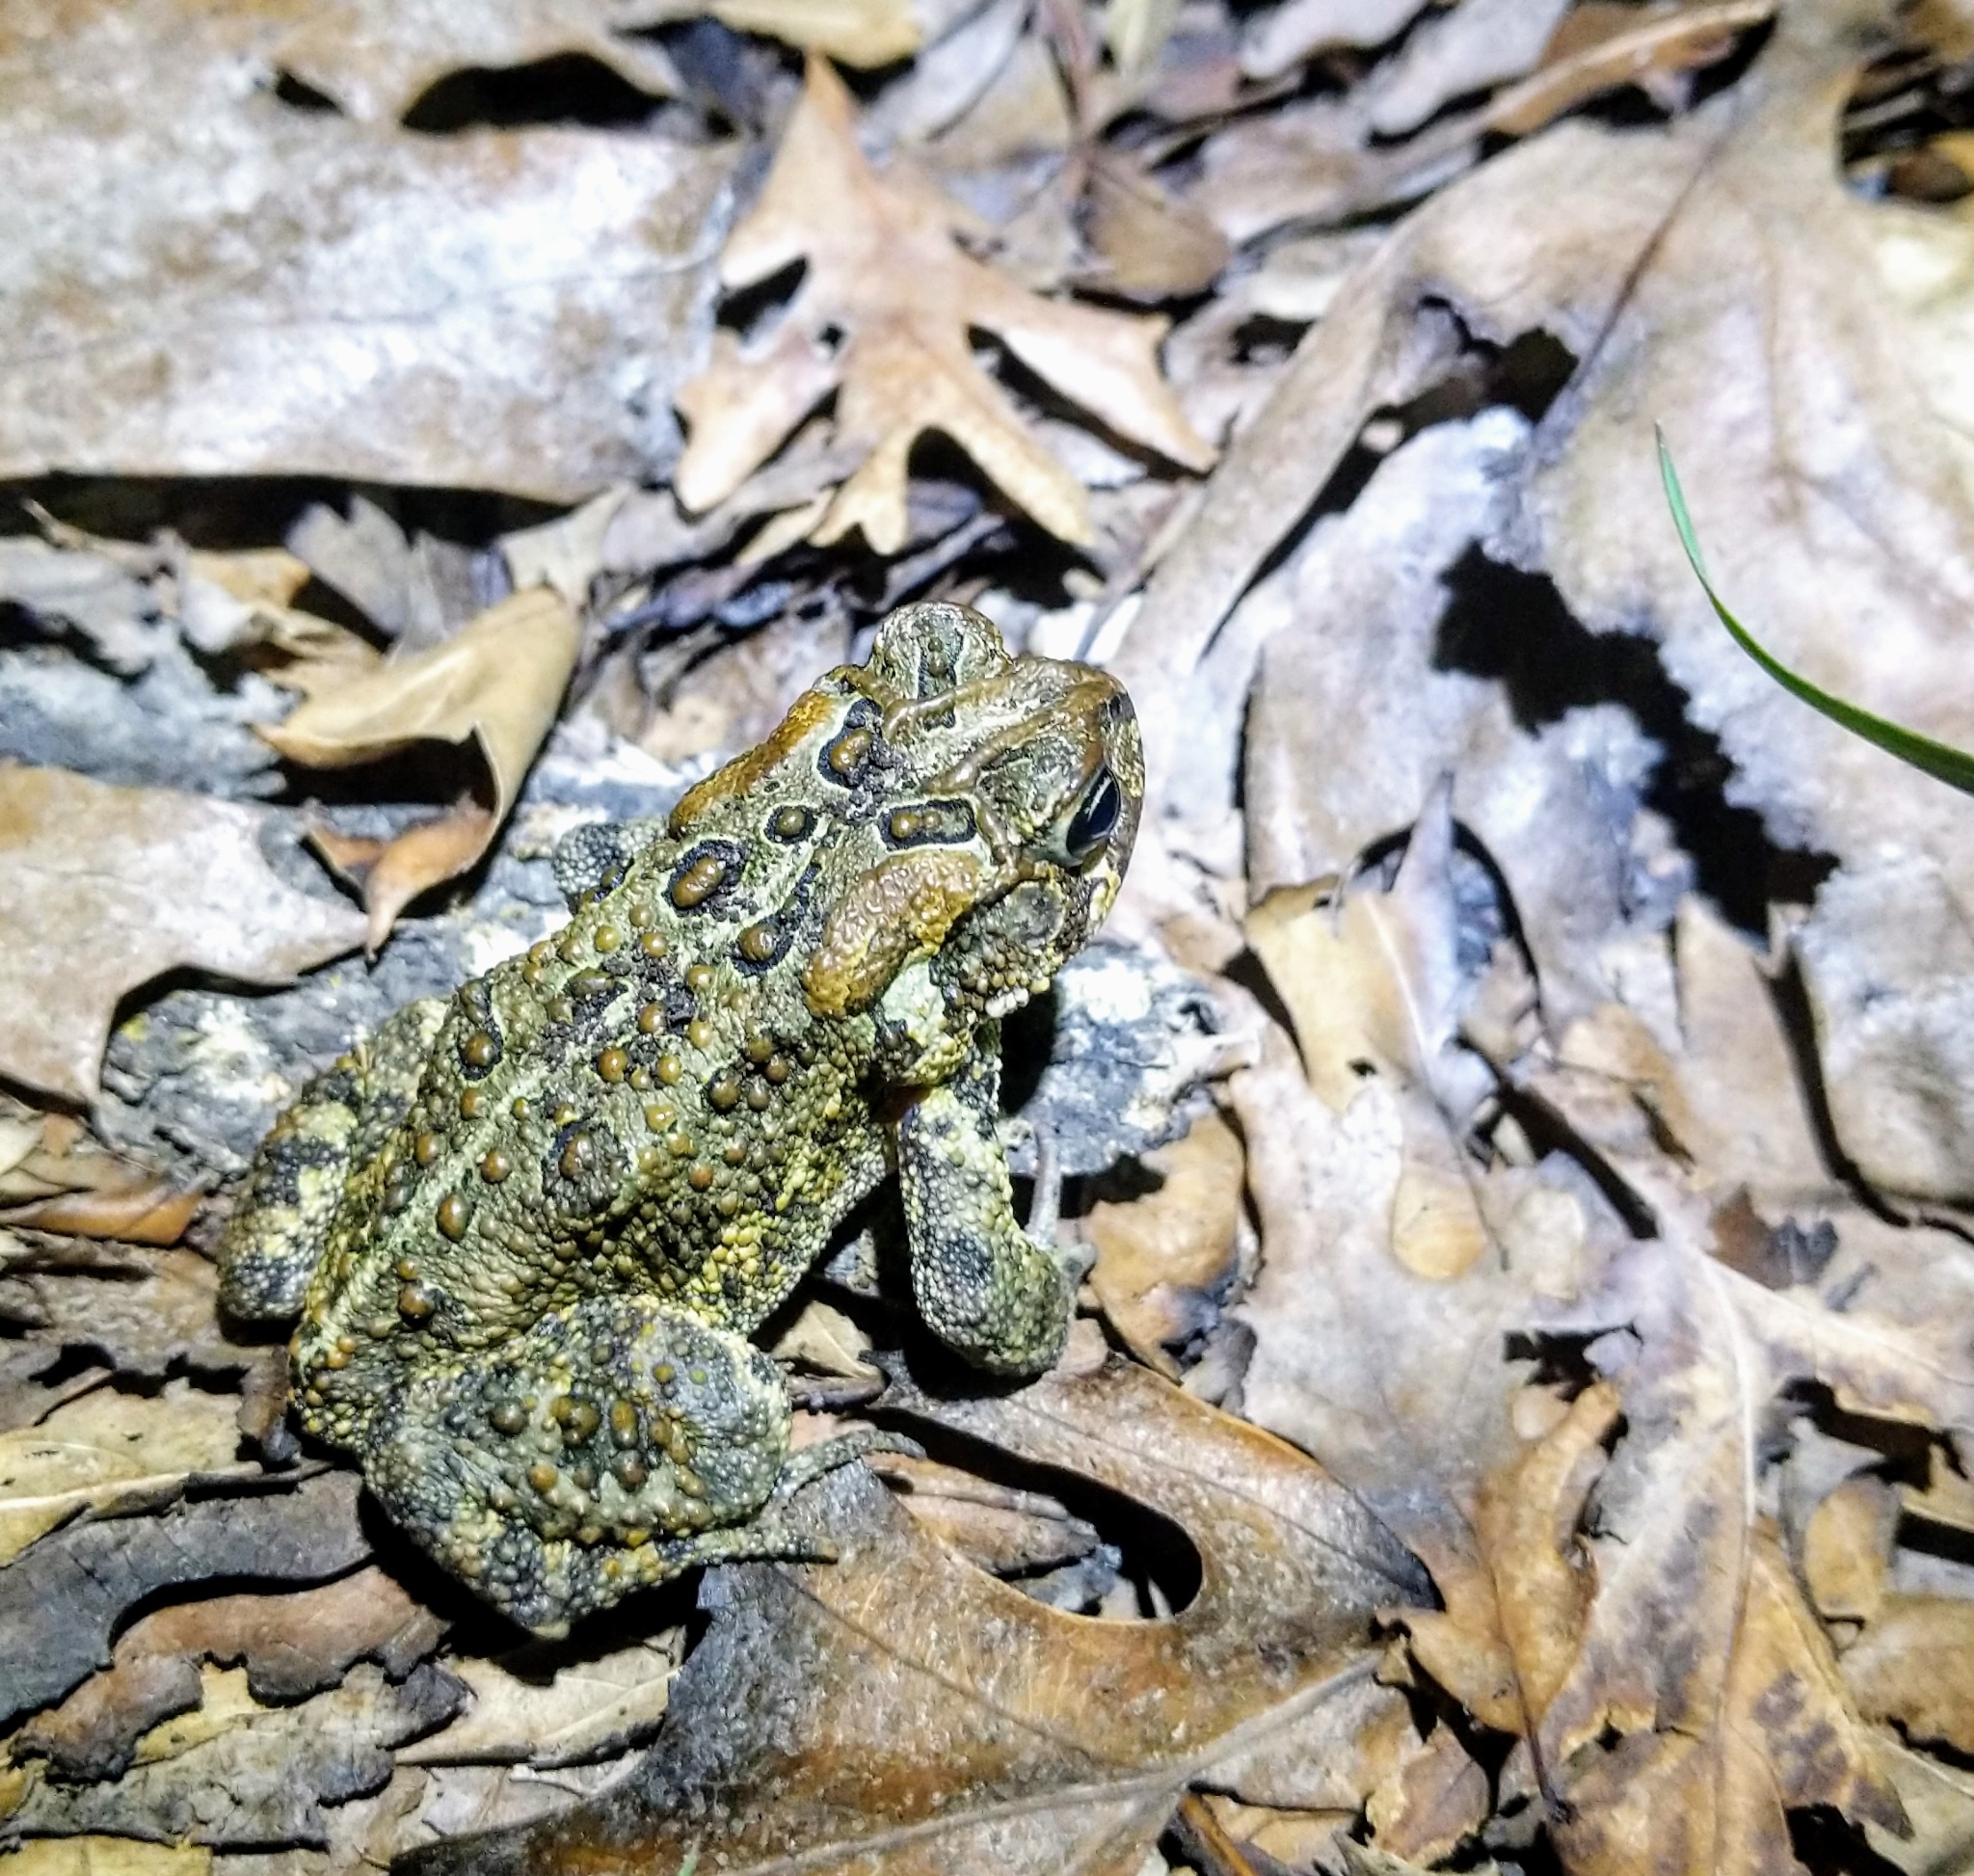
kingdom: Animalia
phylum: Chordata
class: Amphibia
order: Anura
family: Bufonidae
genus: Anaxyrus
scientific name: Anaxyrus americanus
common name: American toad
